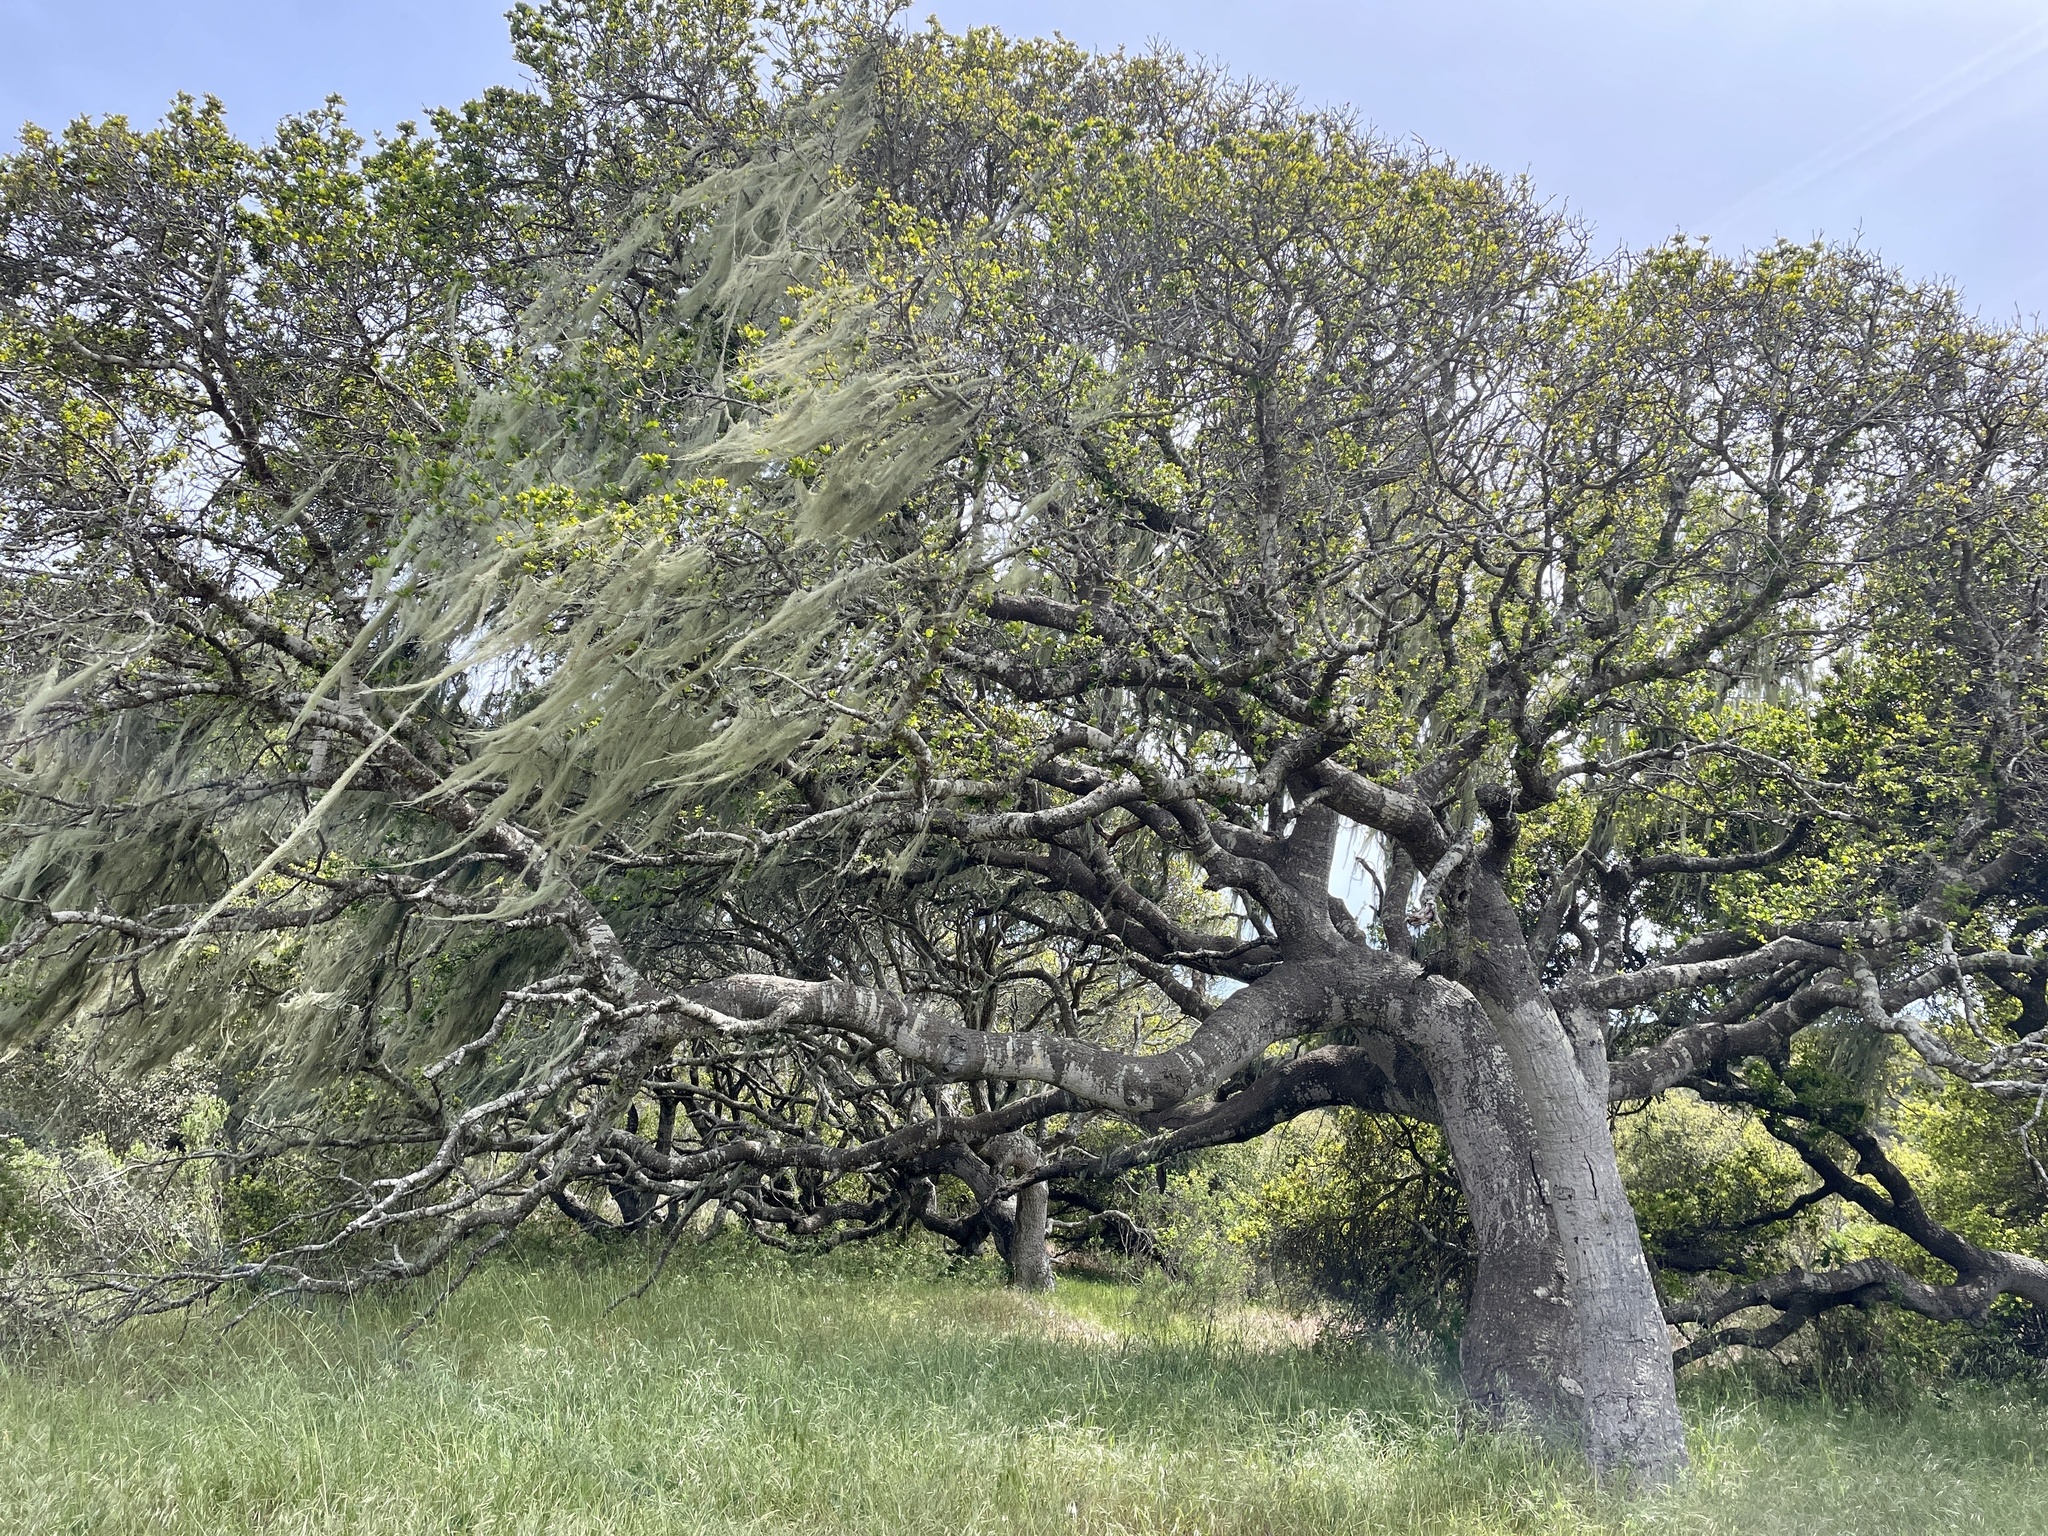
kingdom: Fungi
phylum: Ascomycota
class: Lecanoromycetes
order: Lecanorales
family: Ramalinaceae
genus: Ramalina
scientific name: Ramalina menziesii
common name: Lace lichen
